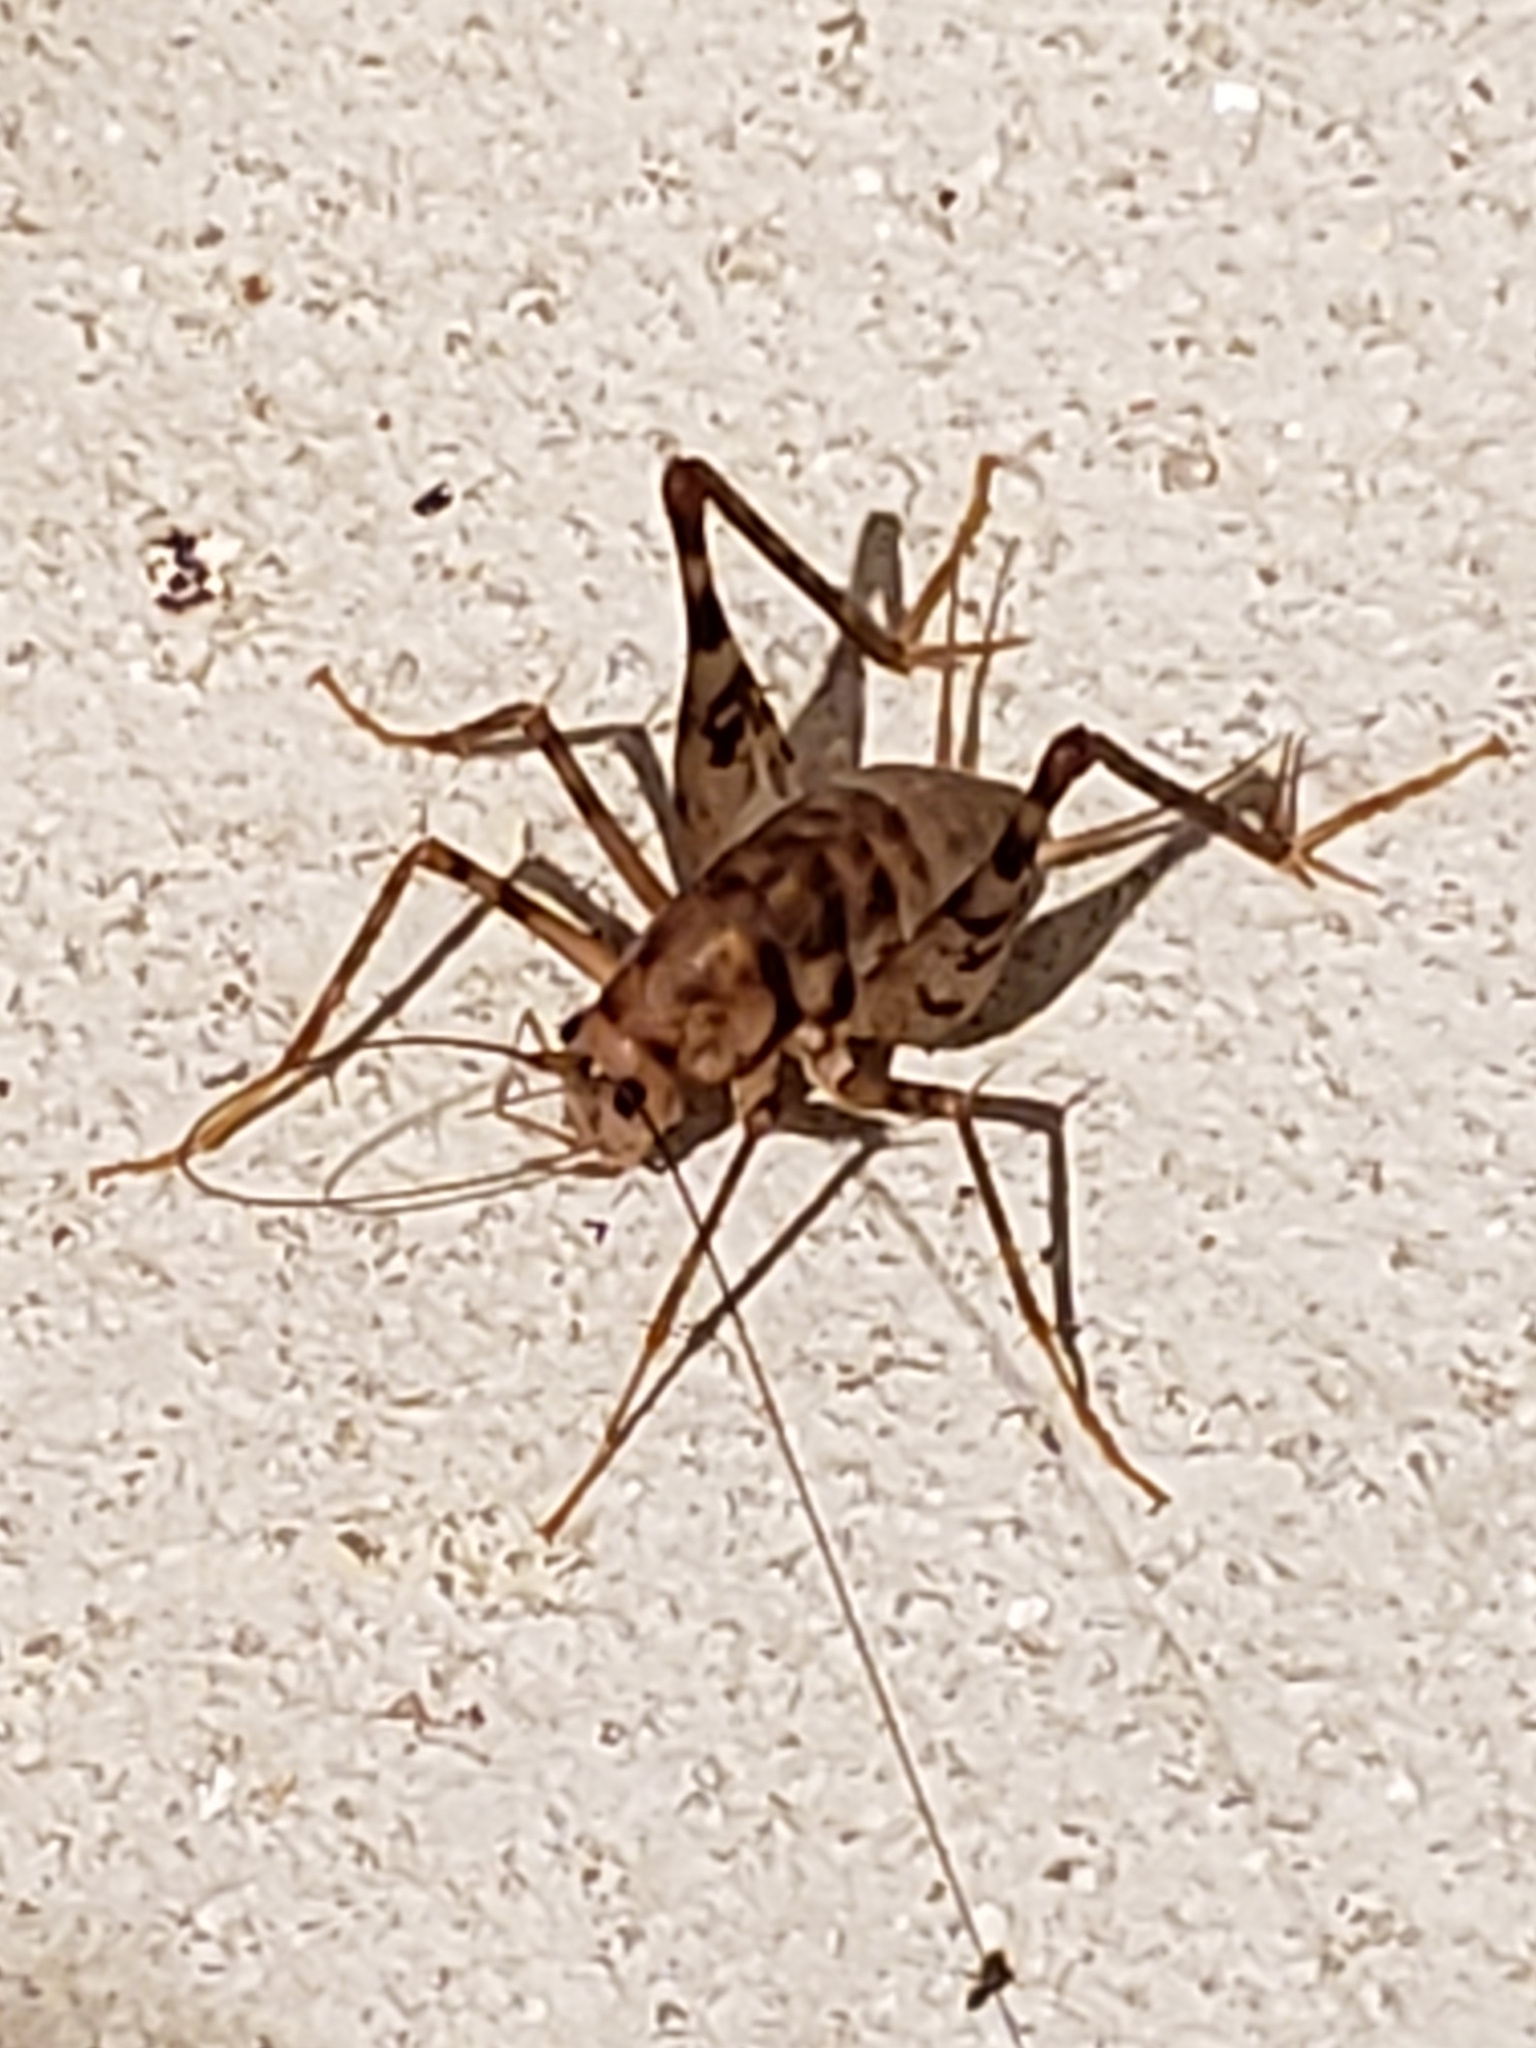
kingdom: Animalia
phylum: Arthropoda
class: Insecta
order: Orthoptera
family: Rhaphidophoridae
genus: Tachycines
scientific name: Tachycines asynamorus
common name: Greenhouse camel cricket
